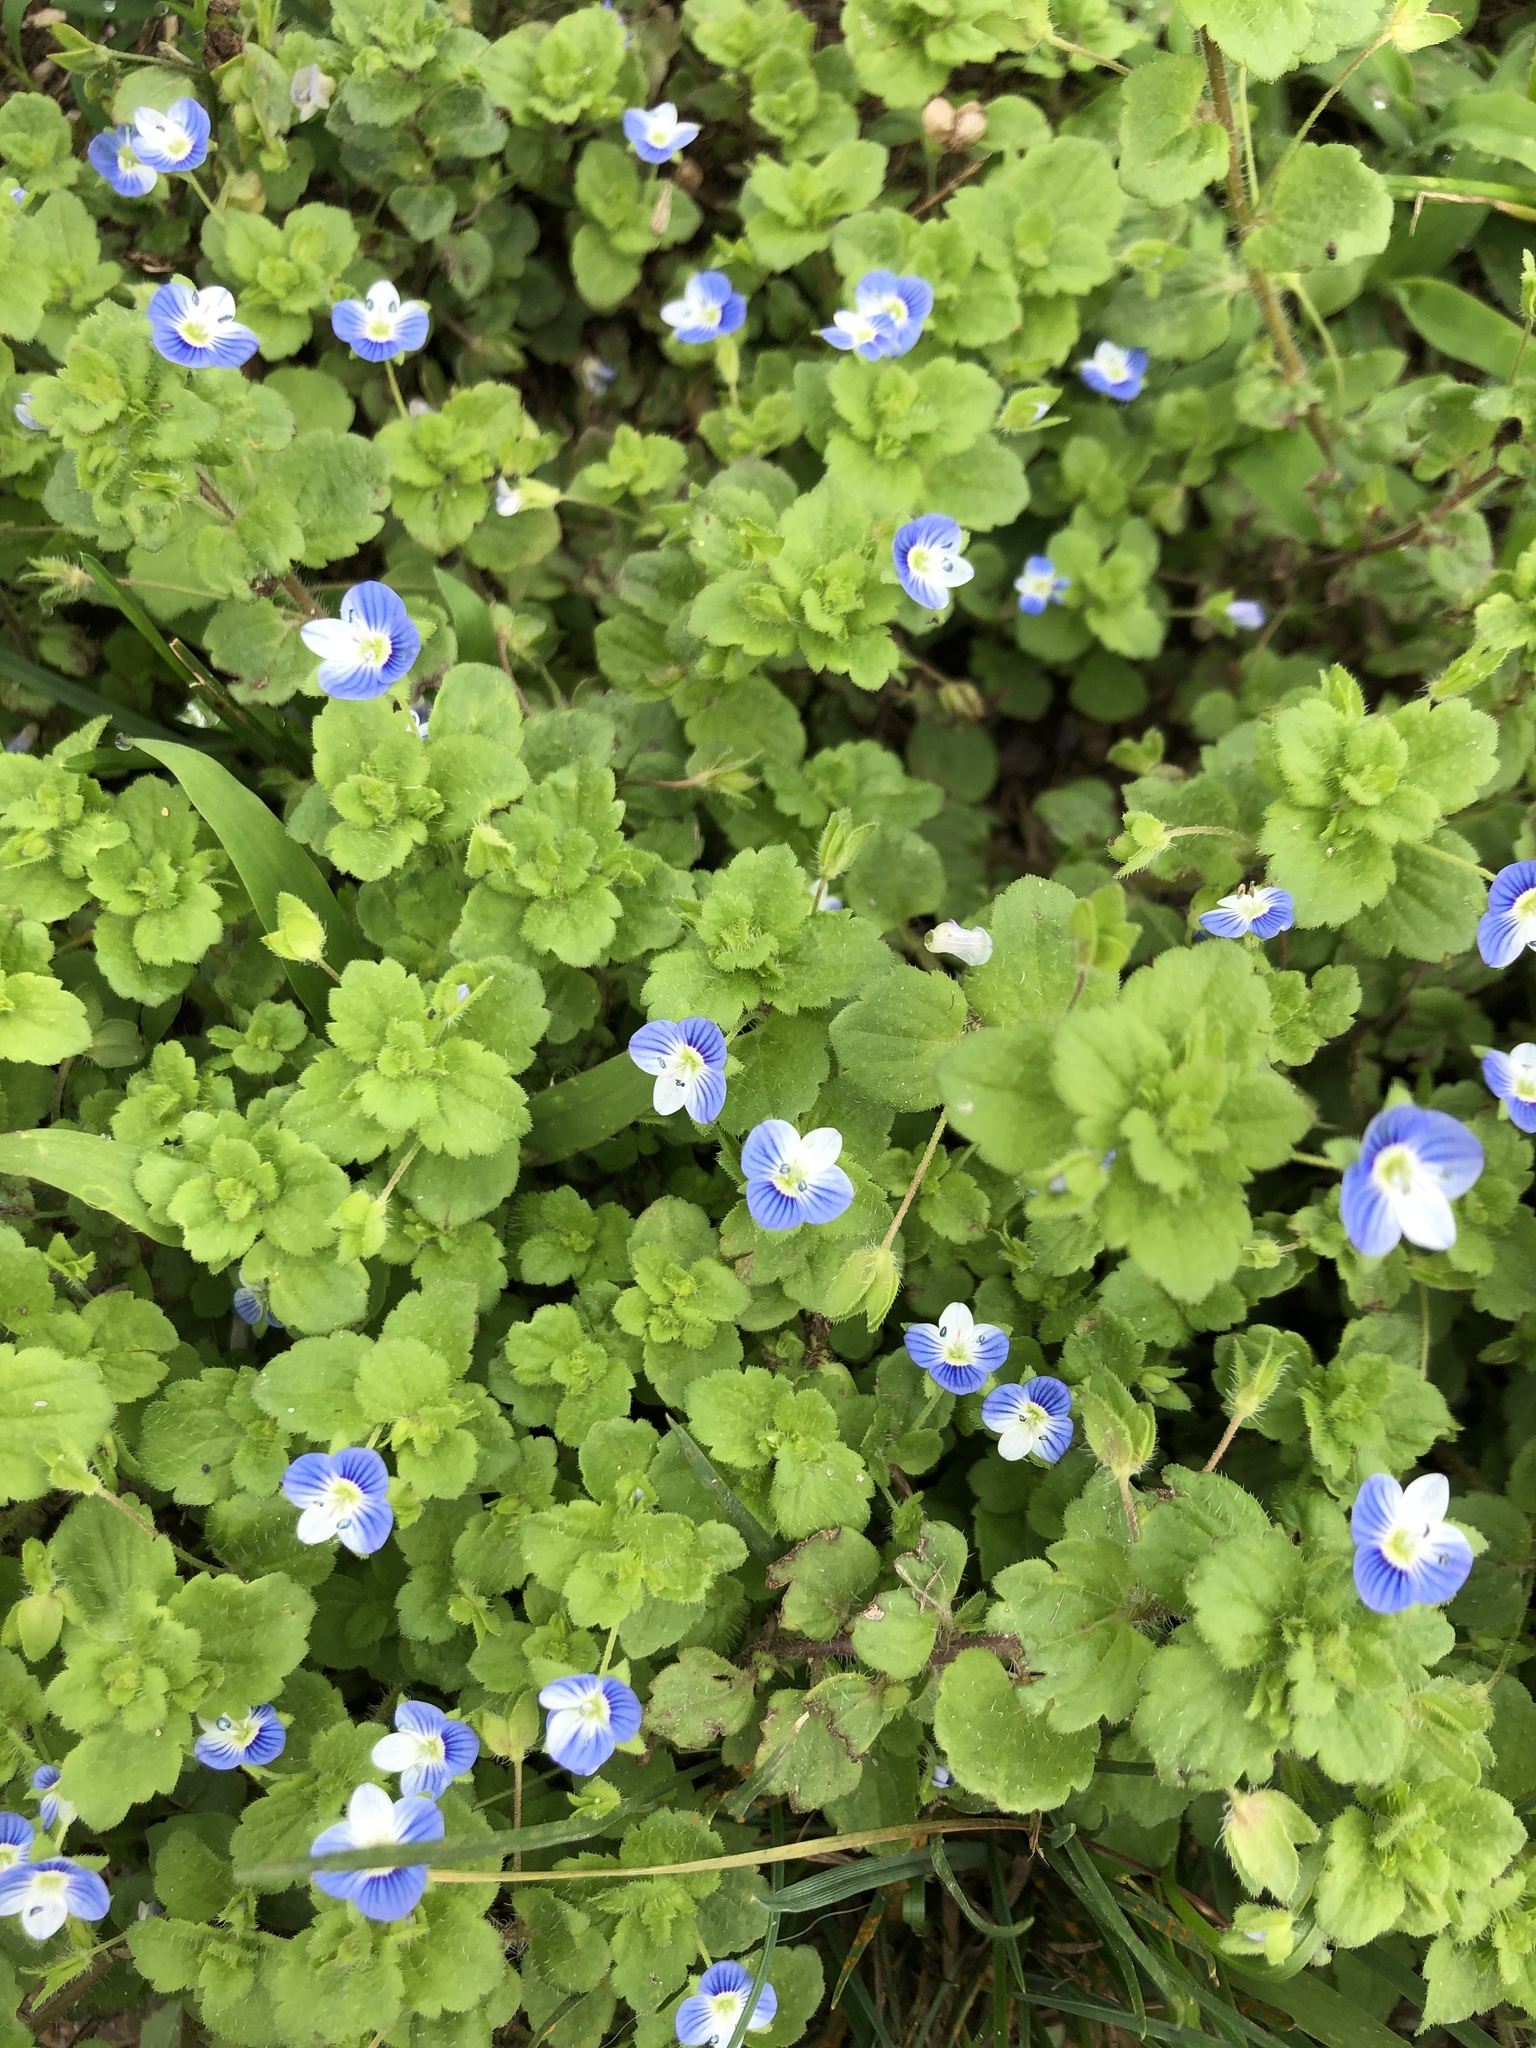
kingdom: Plantae
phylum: Tracheophyta
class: Magnoliopsida
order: Lamiales
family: Plantaginaceae
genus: Veronica
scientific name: Veronica persica
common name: Common field-speedwell
